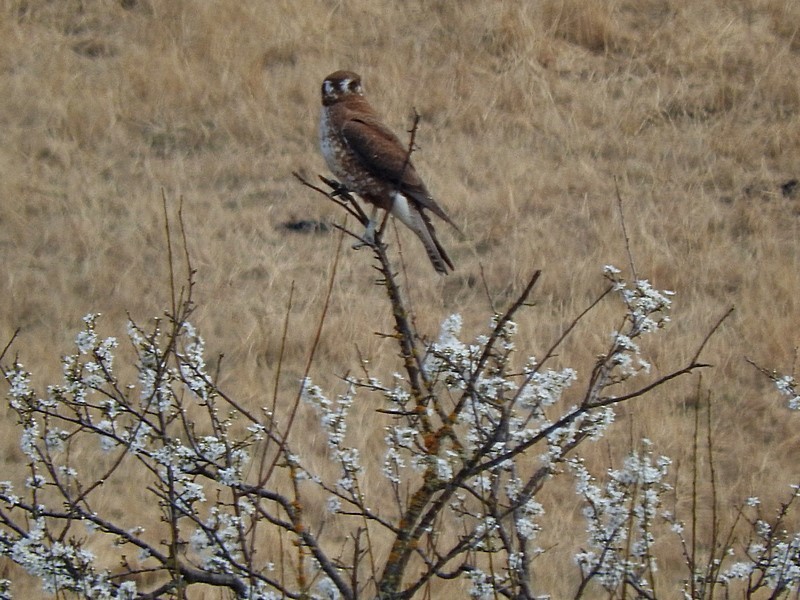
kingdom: Animalia
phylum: Chordata
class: Aves
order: Falconiformes
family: Falconidae
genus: Falco
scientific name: Falco berigora
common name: Brown falcon
